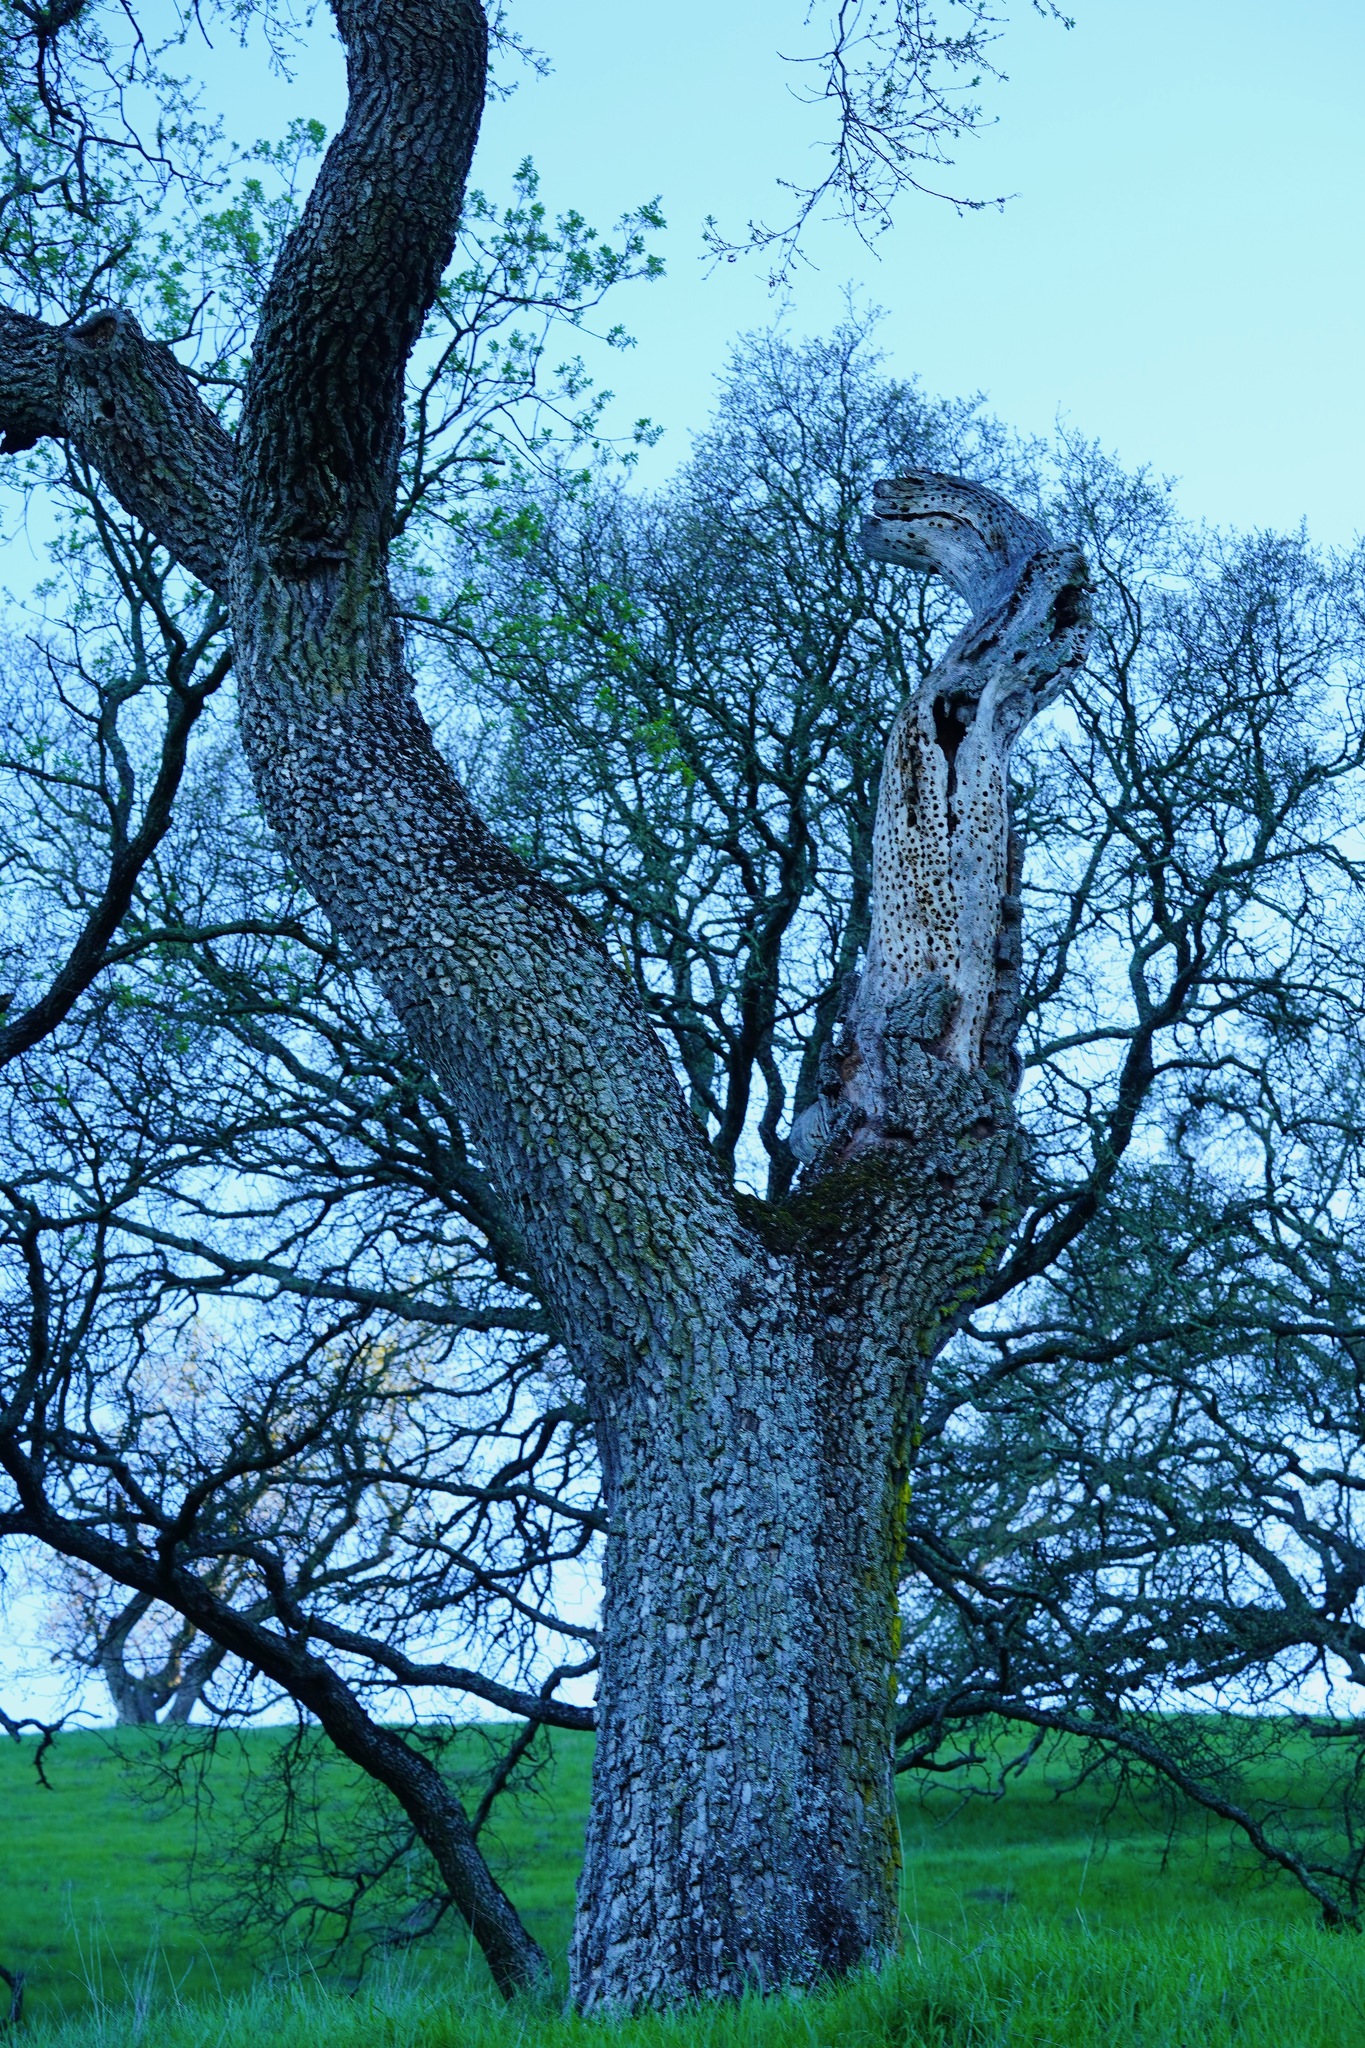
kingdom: Animalia
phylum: Chordata
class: Aves
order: Piciformes
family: Picidae
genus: Melanerpes
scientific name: Melanerpes formicivorus
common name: Acorn woodpecker
